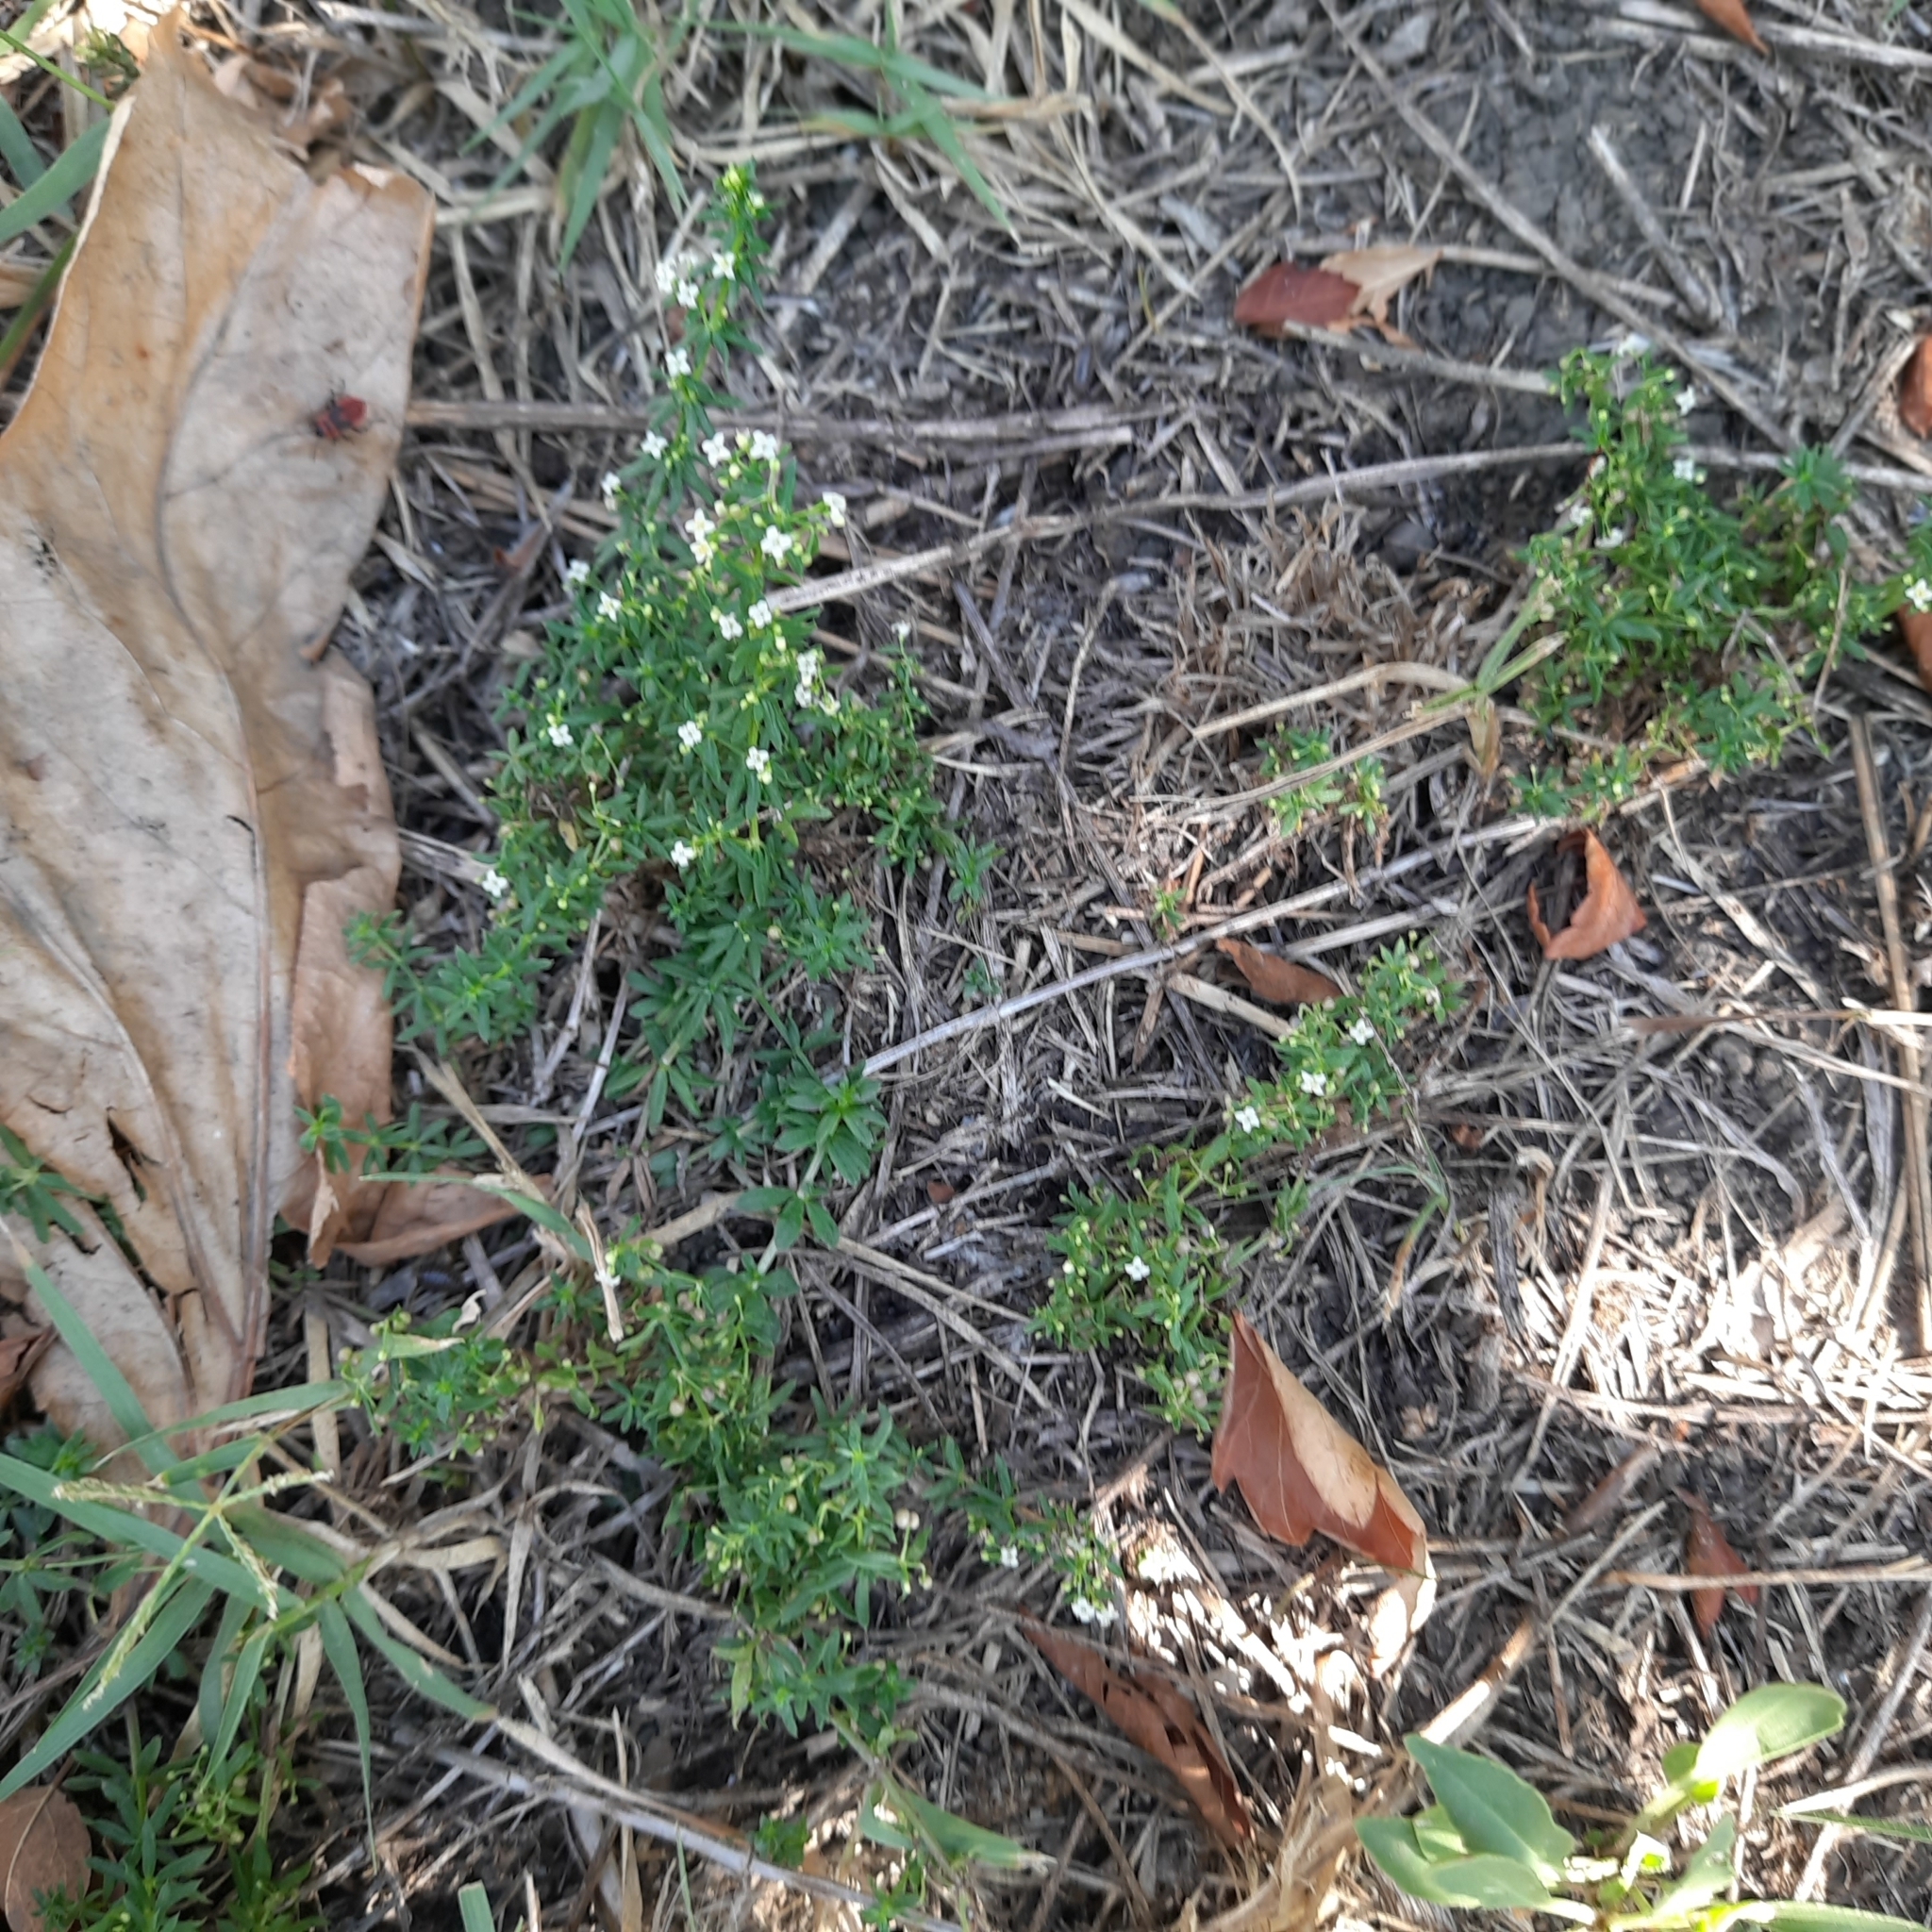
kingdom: Plantae
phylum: Tracheophyta
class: Magnoliopsida
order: Gentianales
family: Rubiaceae
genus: Galium
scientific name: Galium humifusum
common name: Spreading bedstraw
